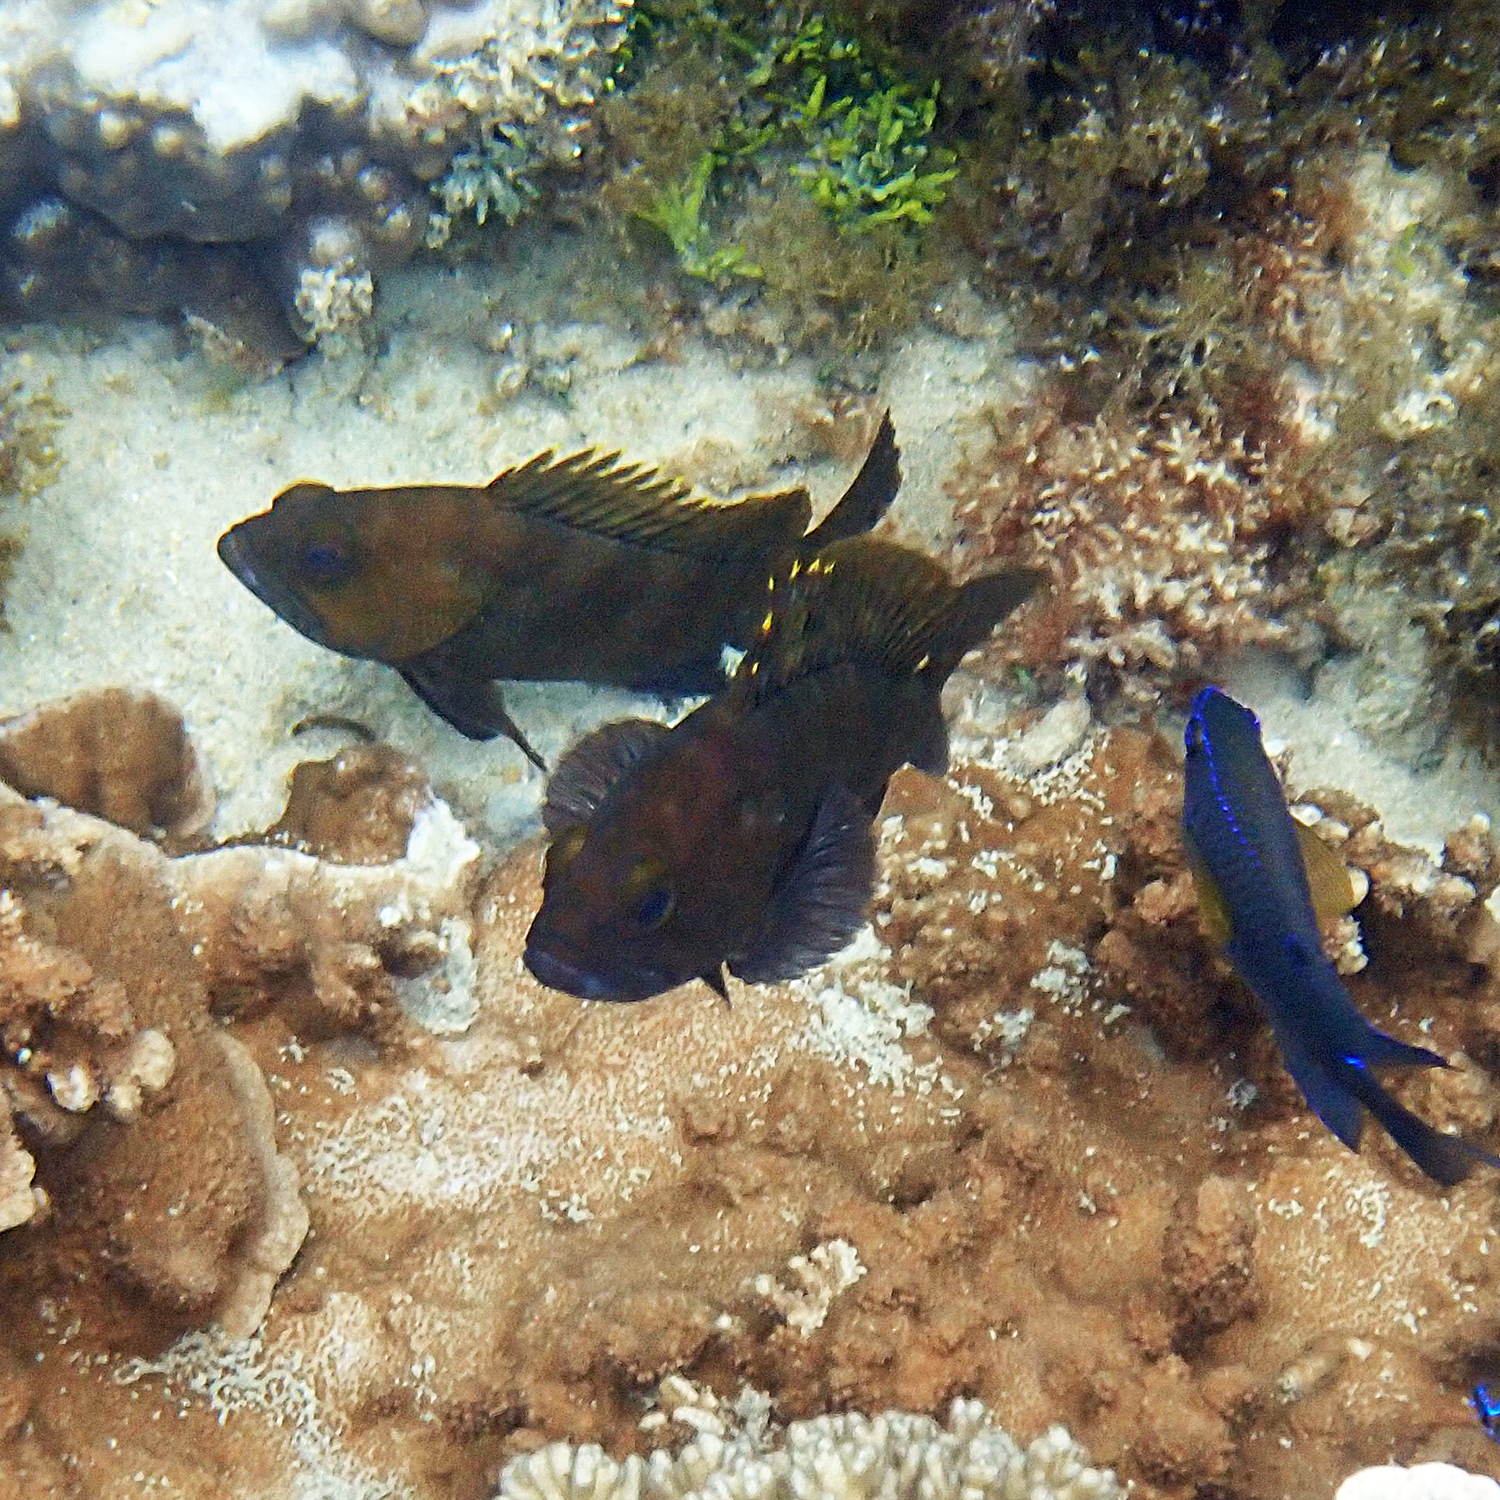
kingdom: Animalia
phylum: Chordata
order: Perciformes
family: Serranidae
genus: Epinephelus
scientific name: Epinephelus rivulatus
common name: Halfmoon grouper
